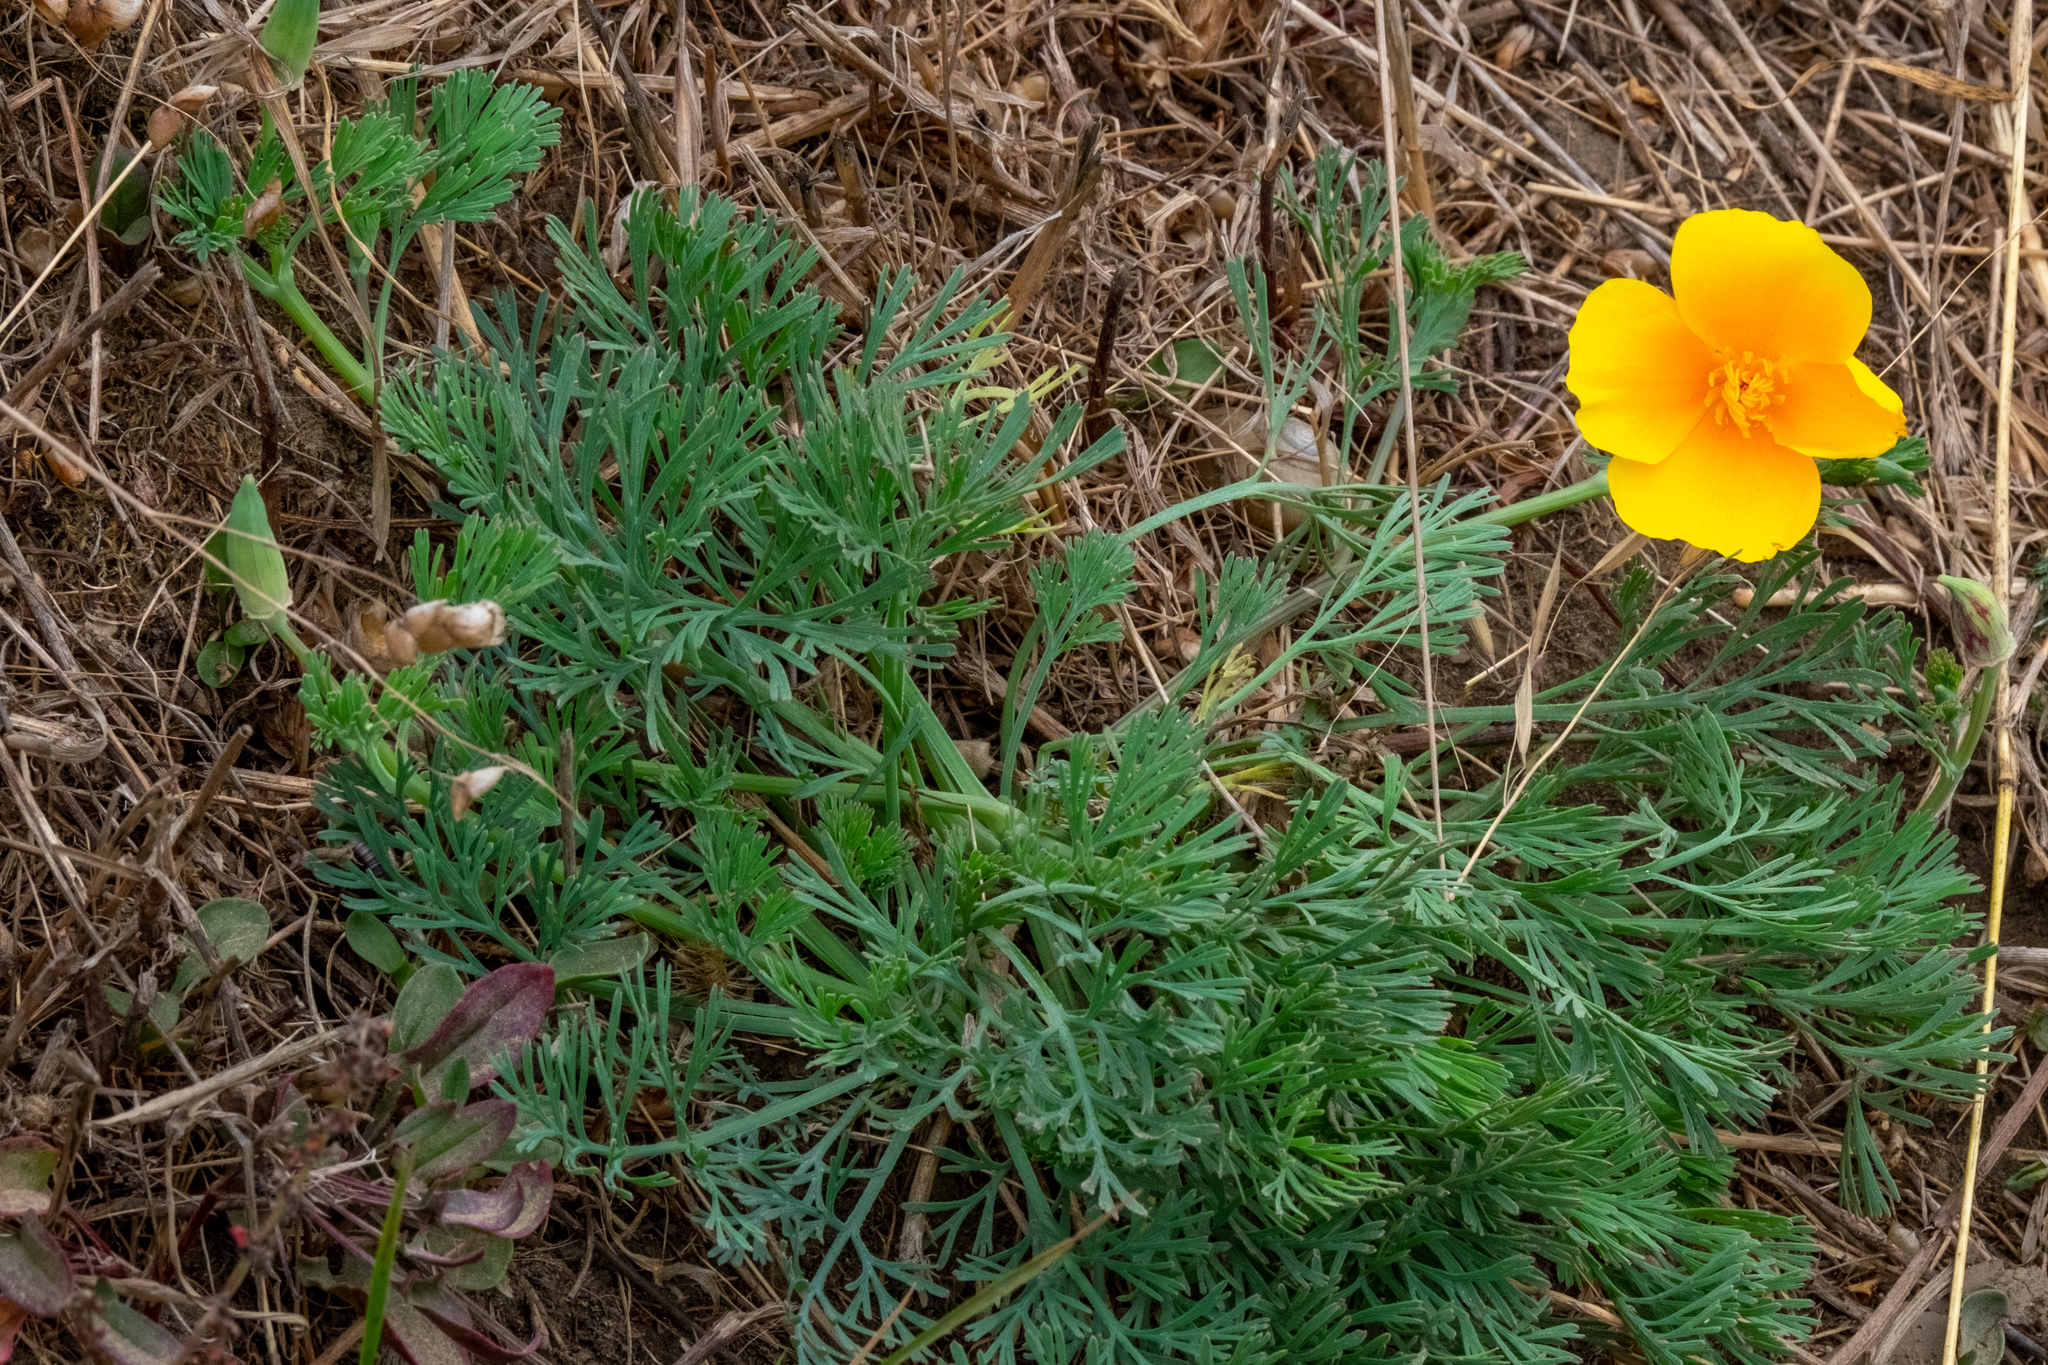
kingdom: Plantae
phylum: Tracheophyta
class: Magnoliopsida
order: Ranunculales
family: Papaveraceae
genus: Eschscholzia
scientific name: Eschscholzia californica
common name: California poppy
